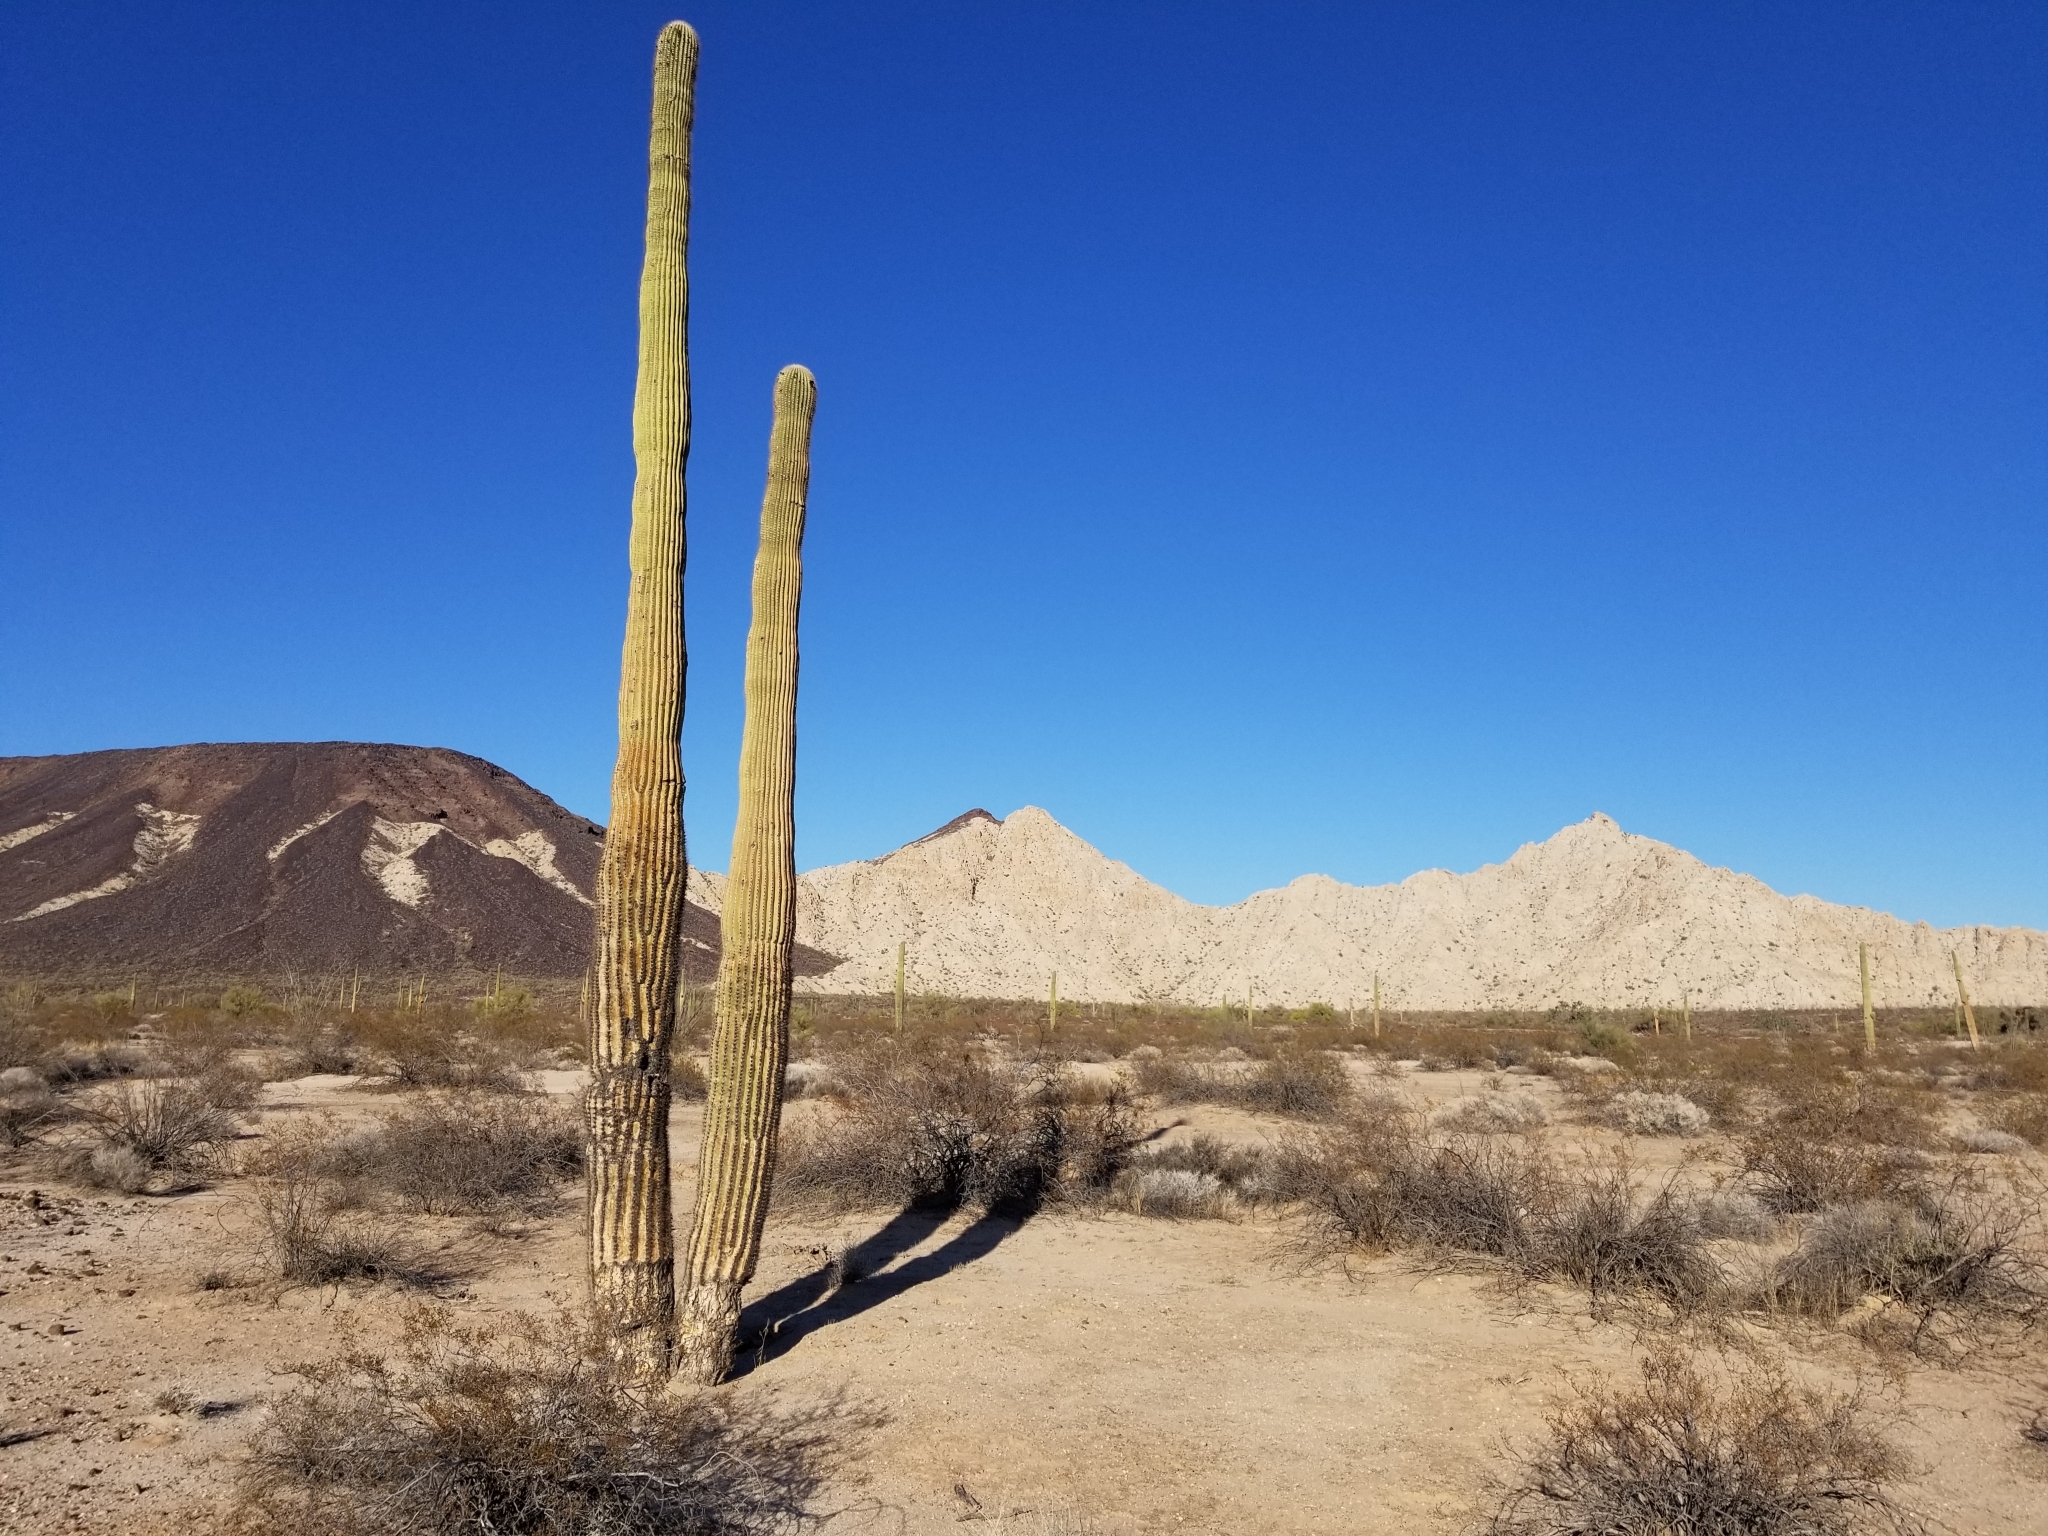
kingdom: Plantae
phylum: Tracheophyta
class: Magnoliopsida
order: Caryophyllales
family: Cactaceae
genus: Carnegiea
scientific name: Carnegiea gigantea
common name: Saguaro
